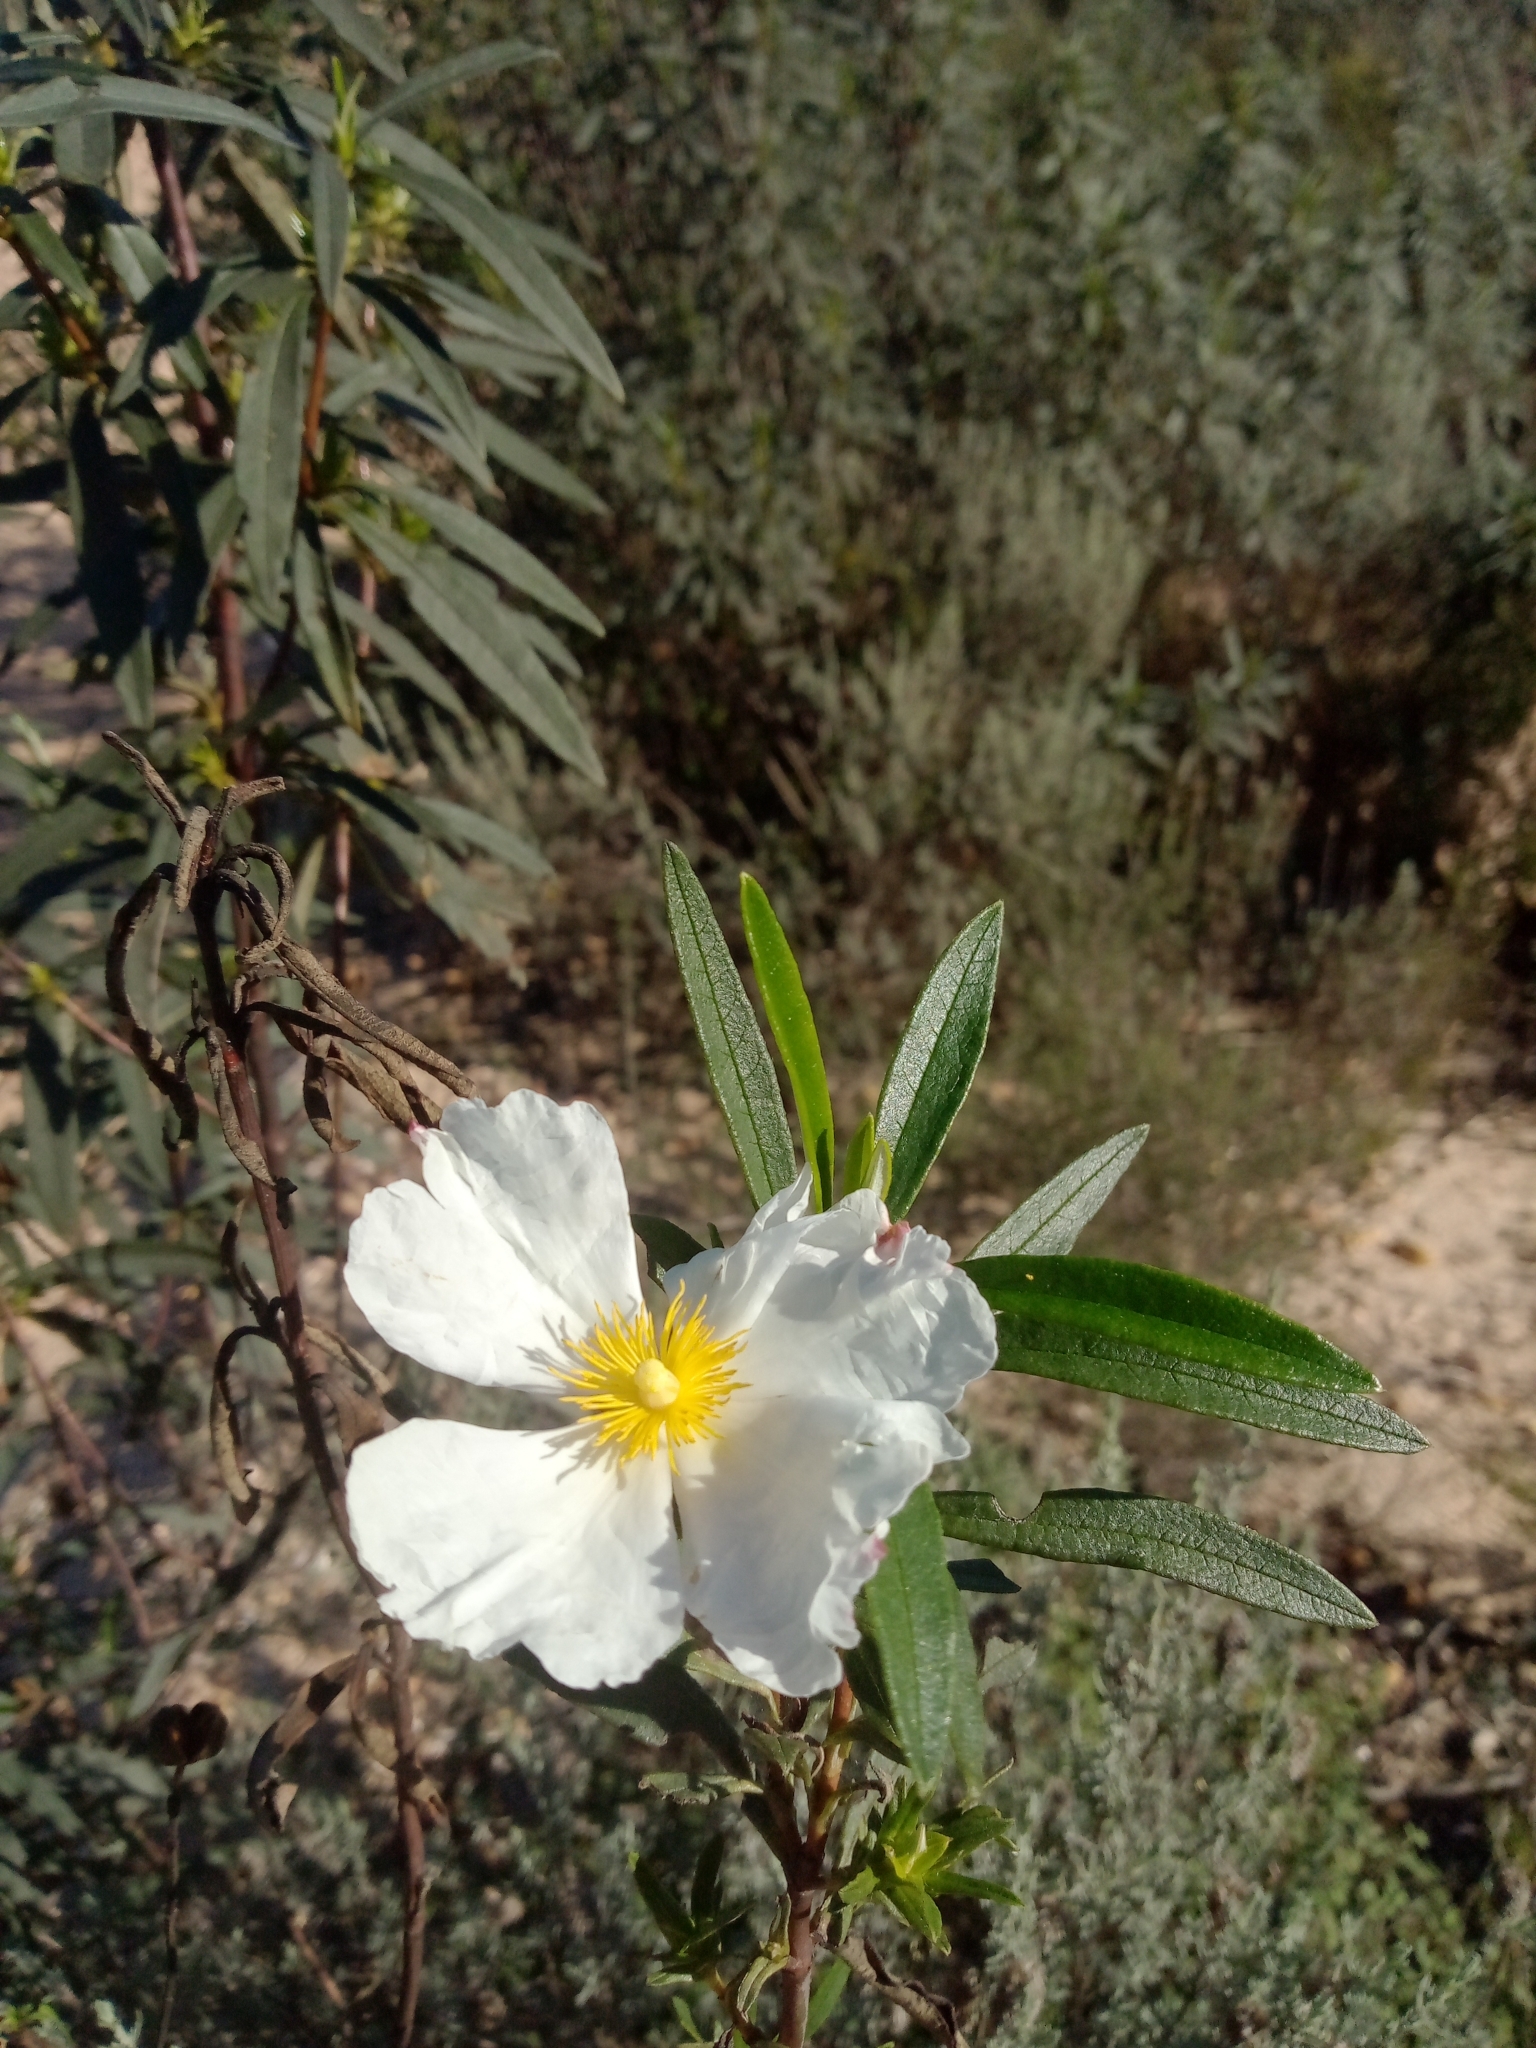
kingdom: Plantae
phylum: Tracheophyta
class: Magnoliopsida
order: Malvales
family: Cistaceae
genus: Cistus
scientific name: Cistus ladanifer
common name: Common gum cistus
